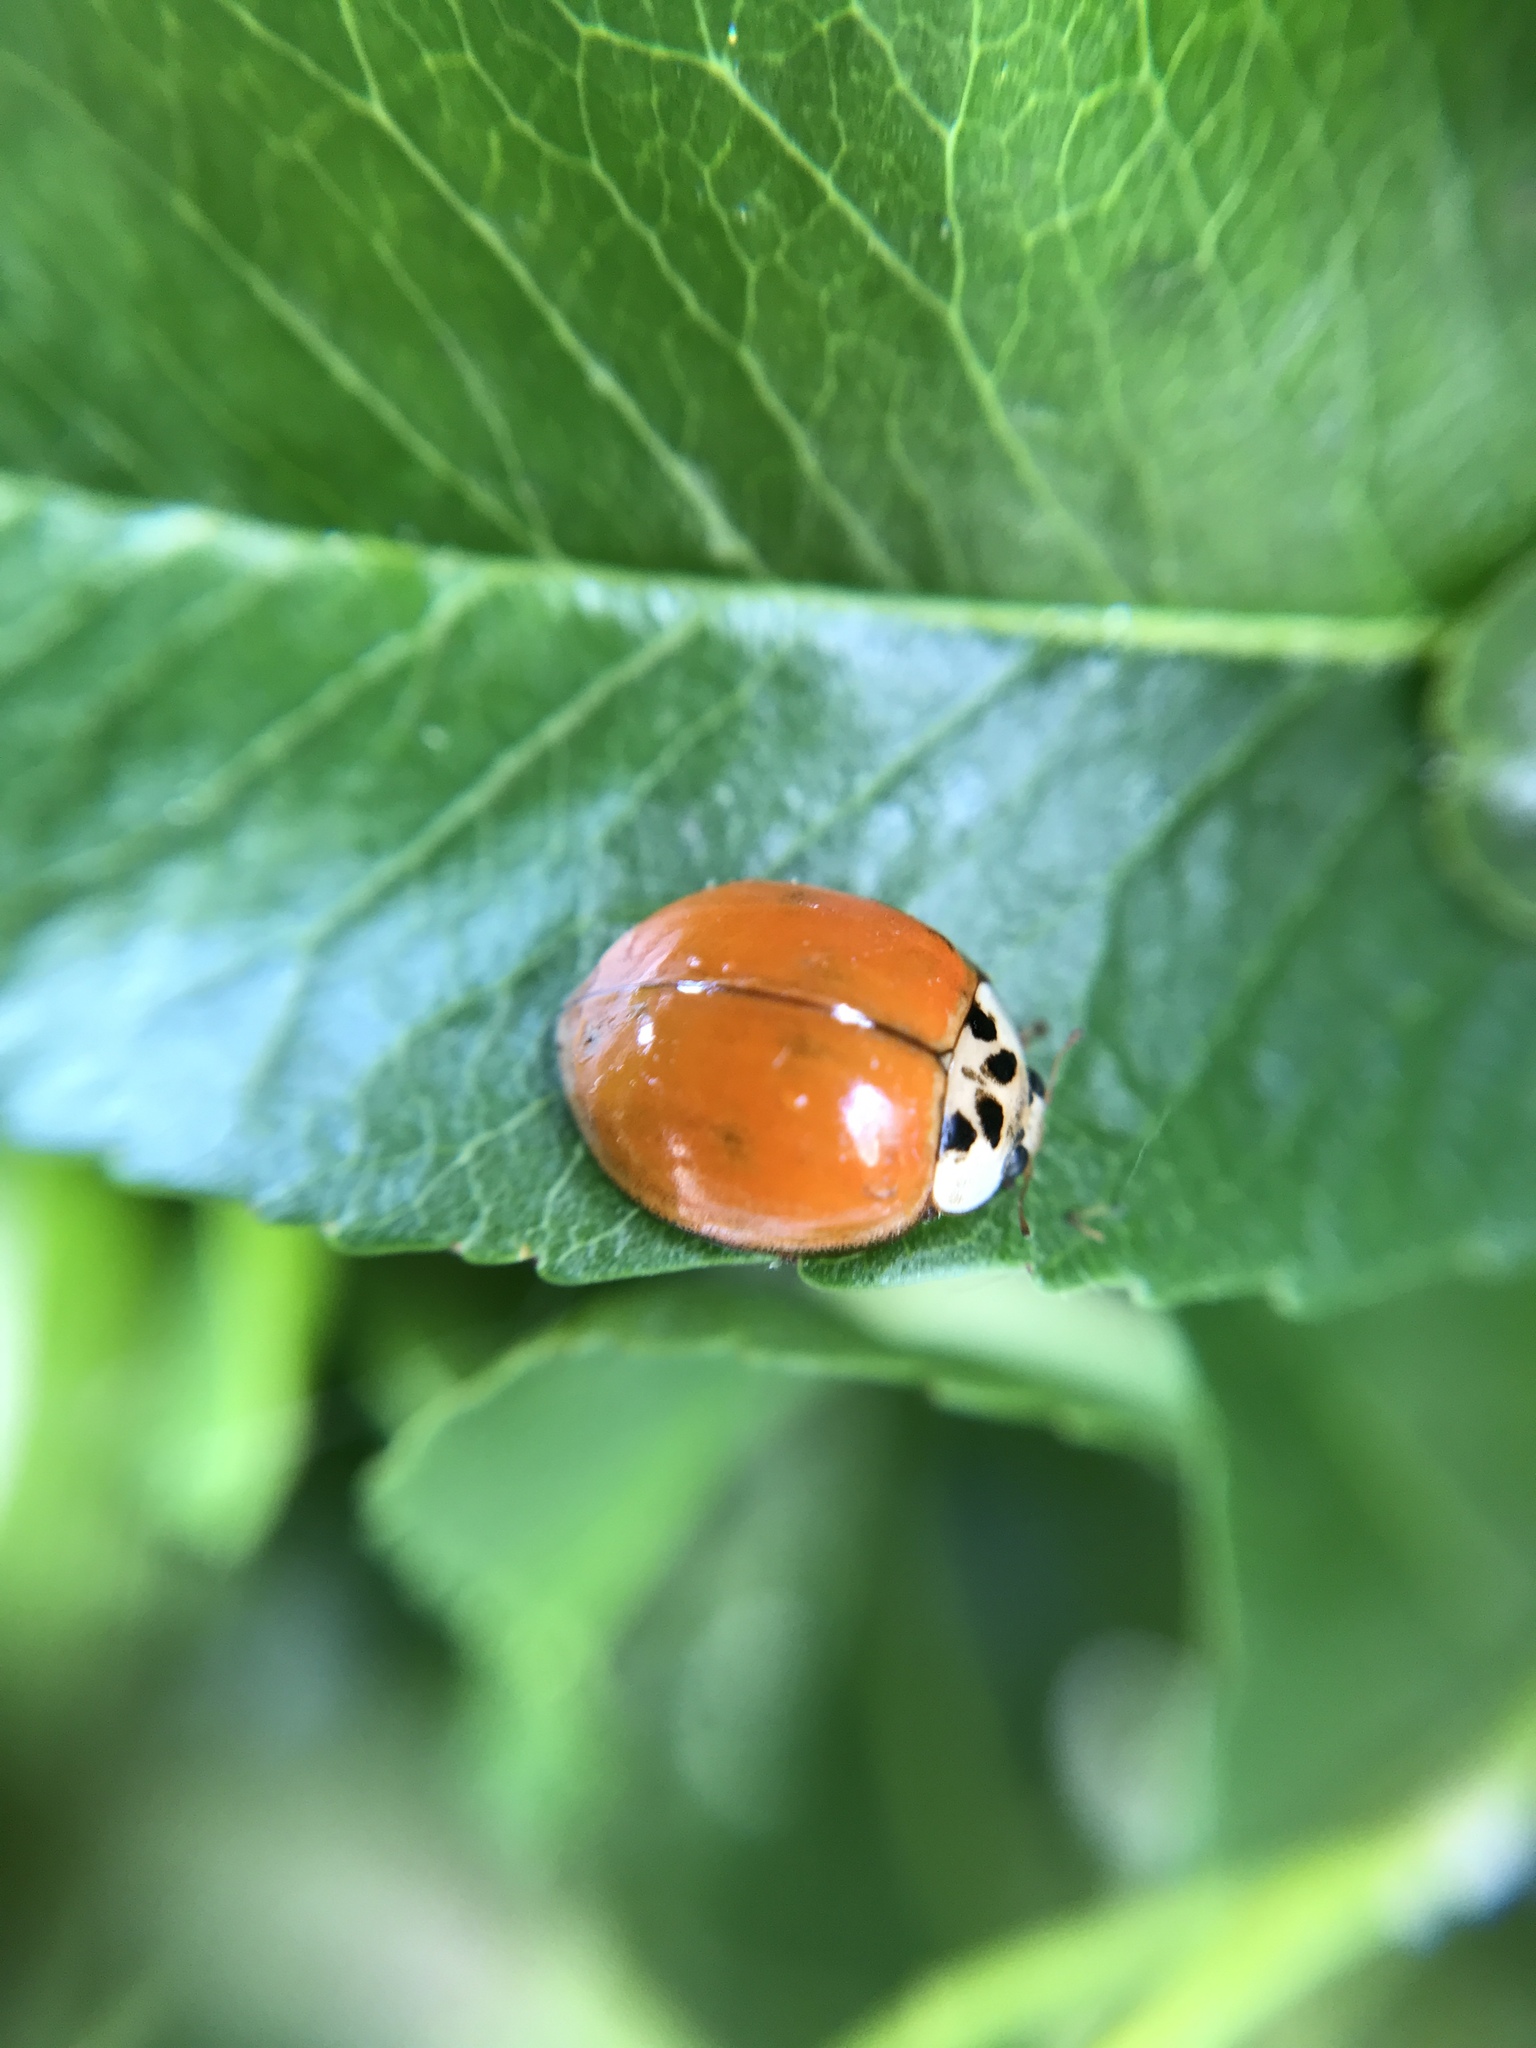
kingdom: Animalia
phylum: Arthropoda
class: Insecta
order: Coleoptera
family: Coccinellidae
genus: Harmonia
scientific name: Harmonia axyridis
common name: Harlequin ladybird
